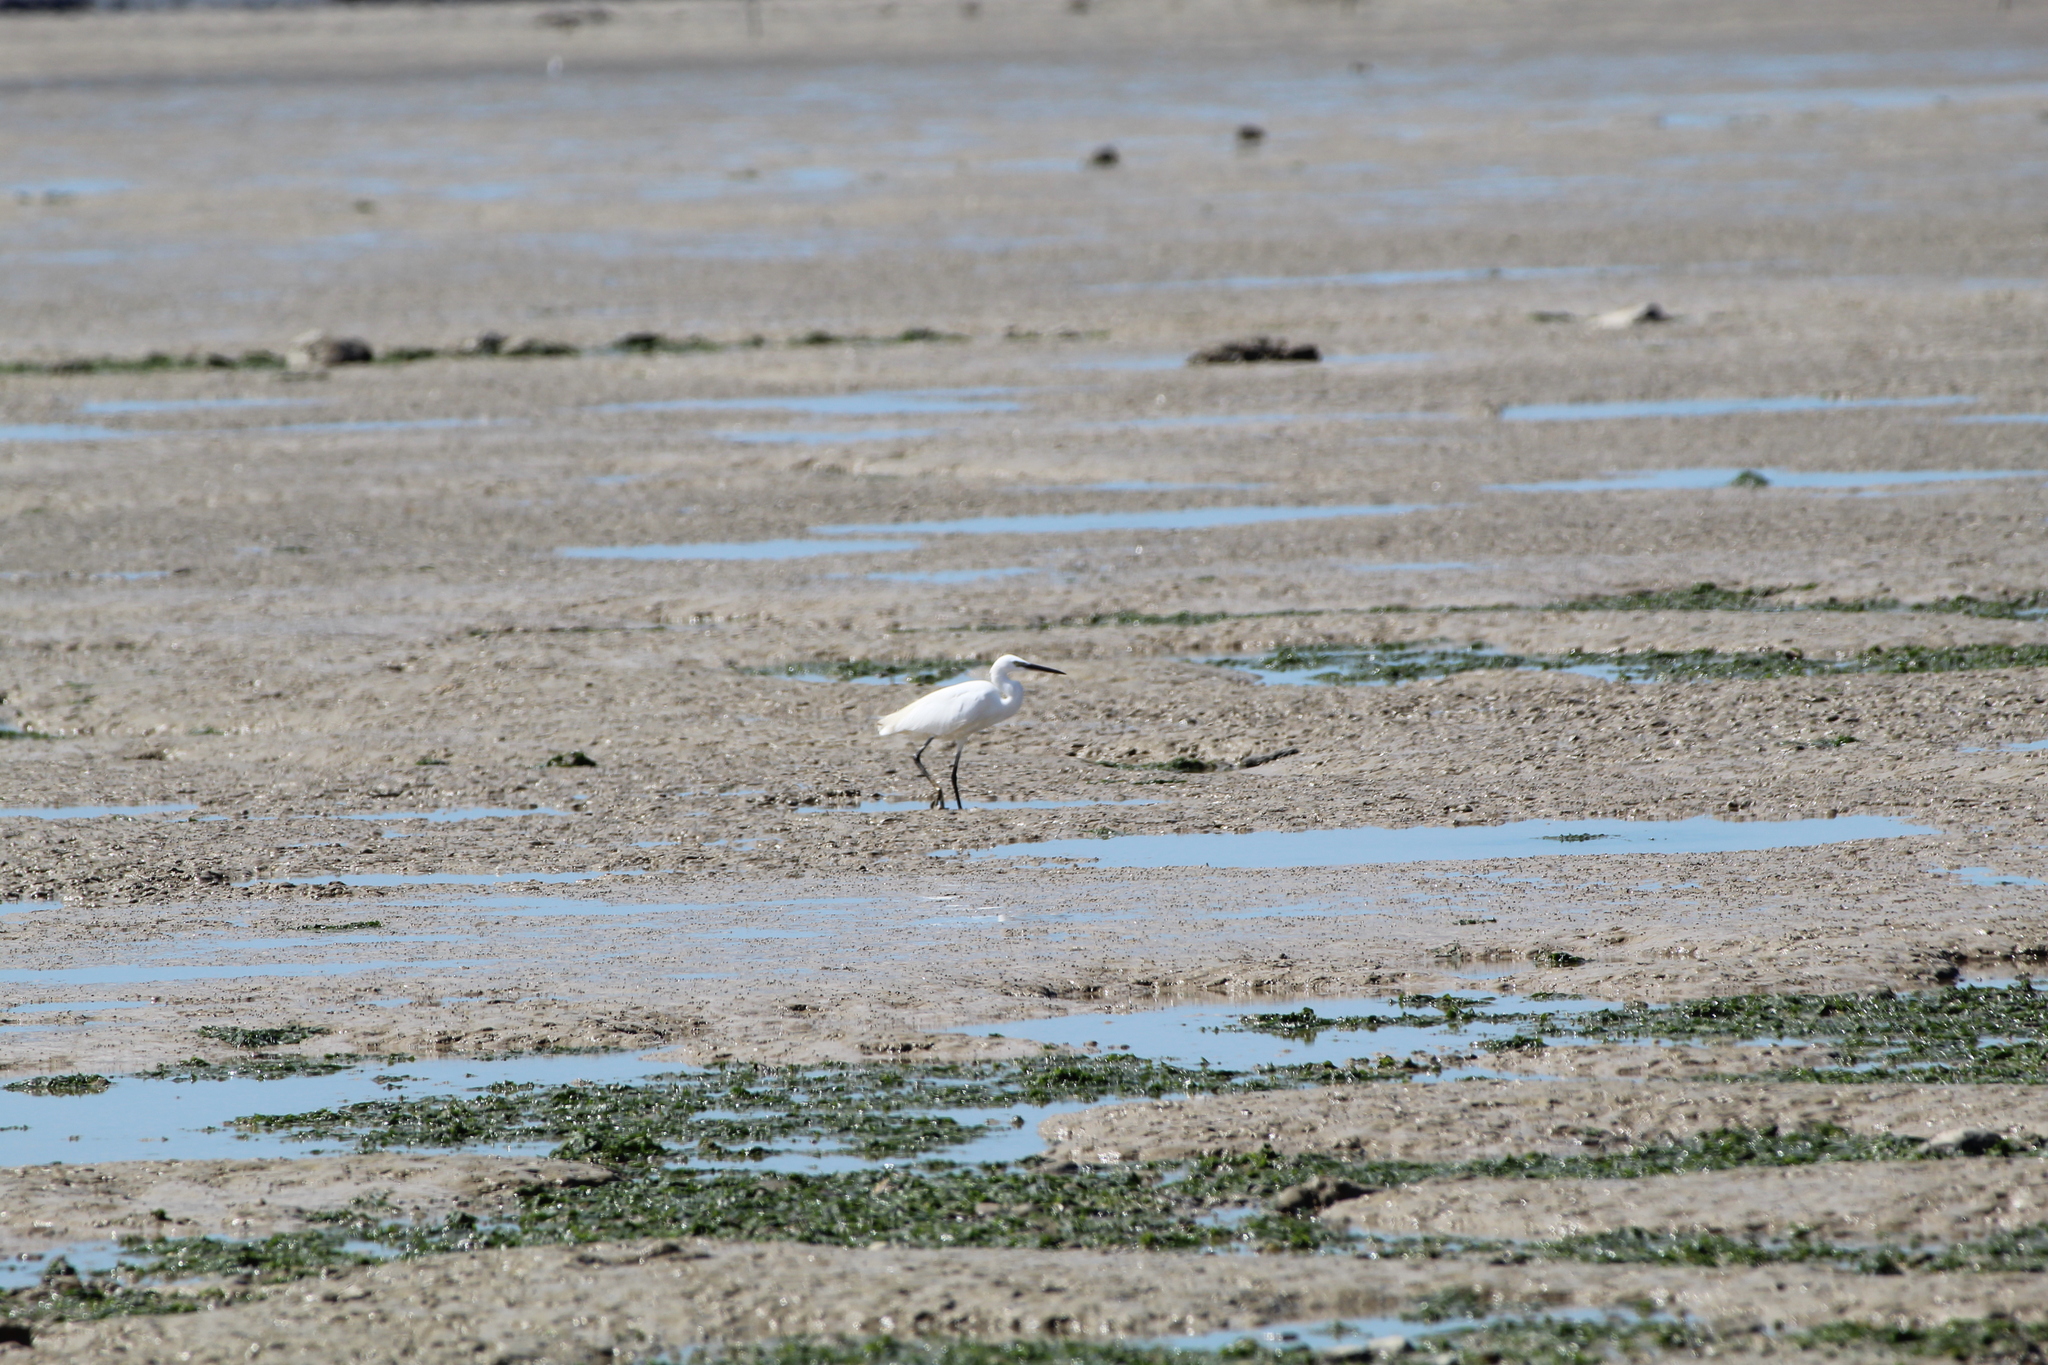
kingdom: Animalia
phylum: Chordata
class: Aves
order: Pelecaniformes
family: Ardeidae
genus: Egretta
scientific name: Egretta garzetta
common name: Little egret
